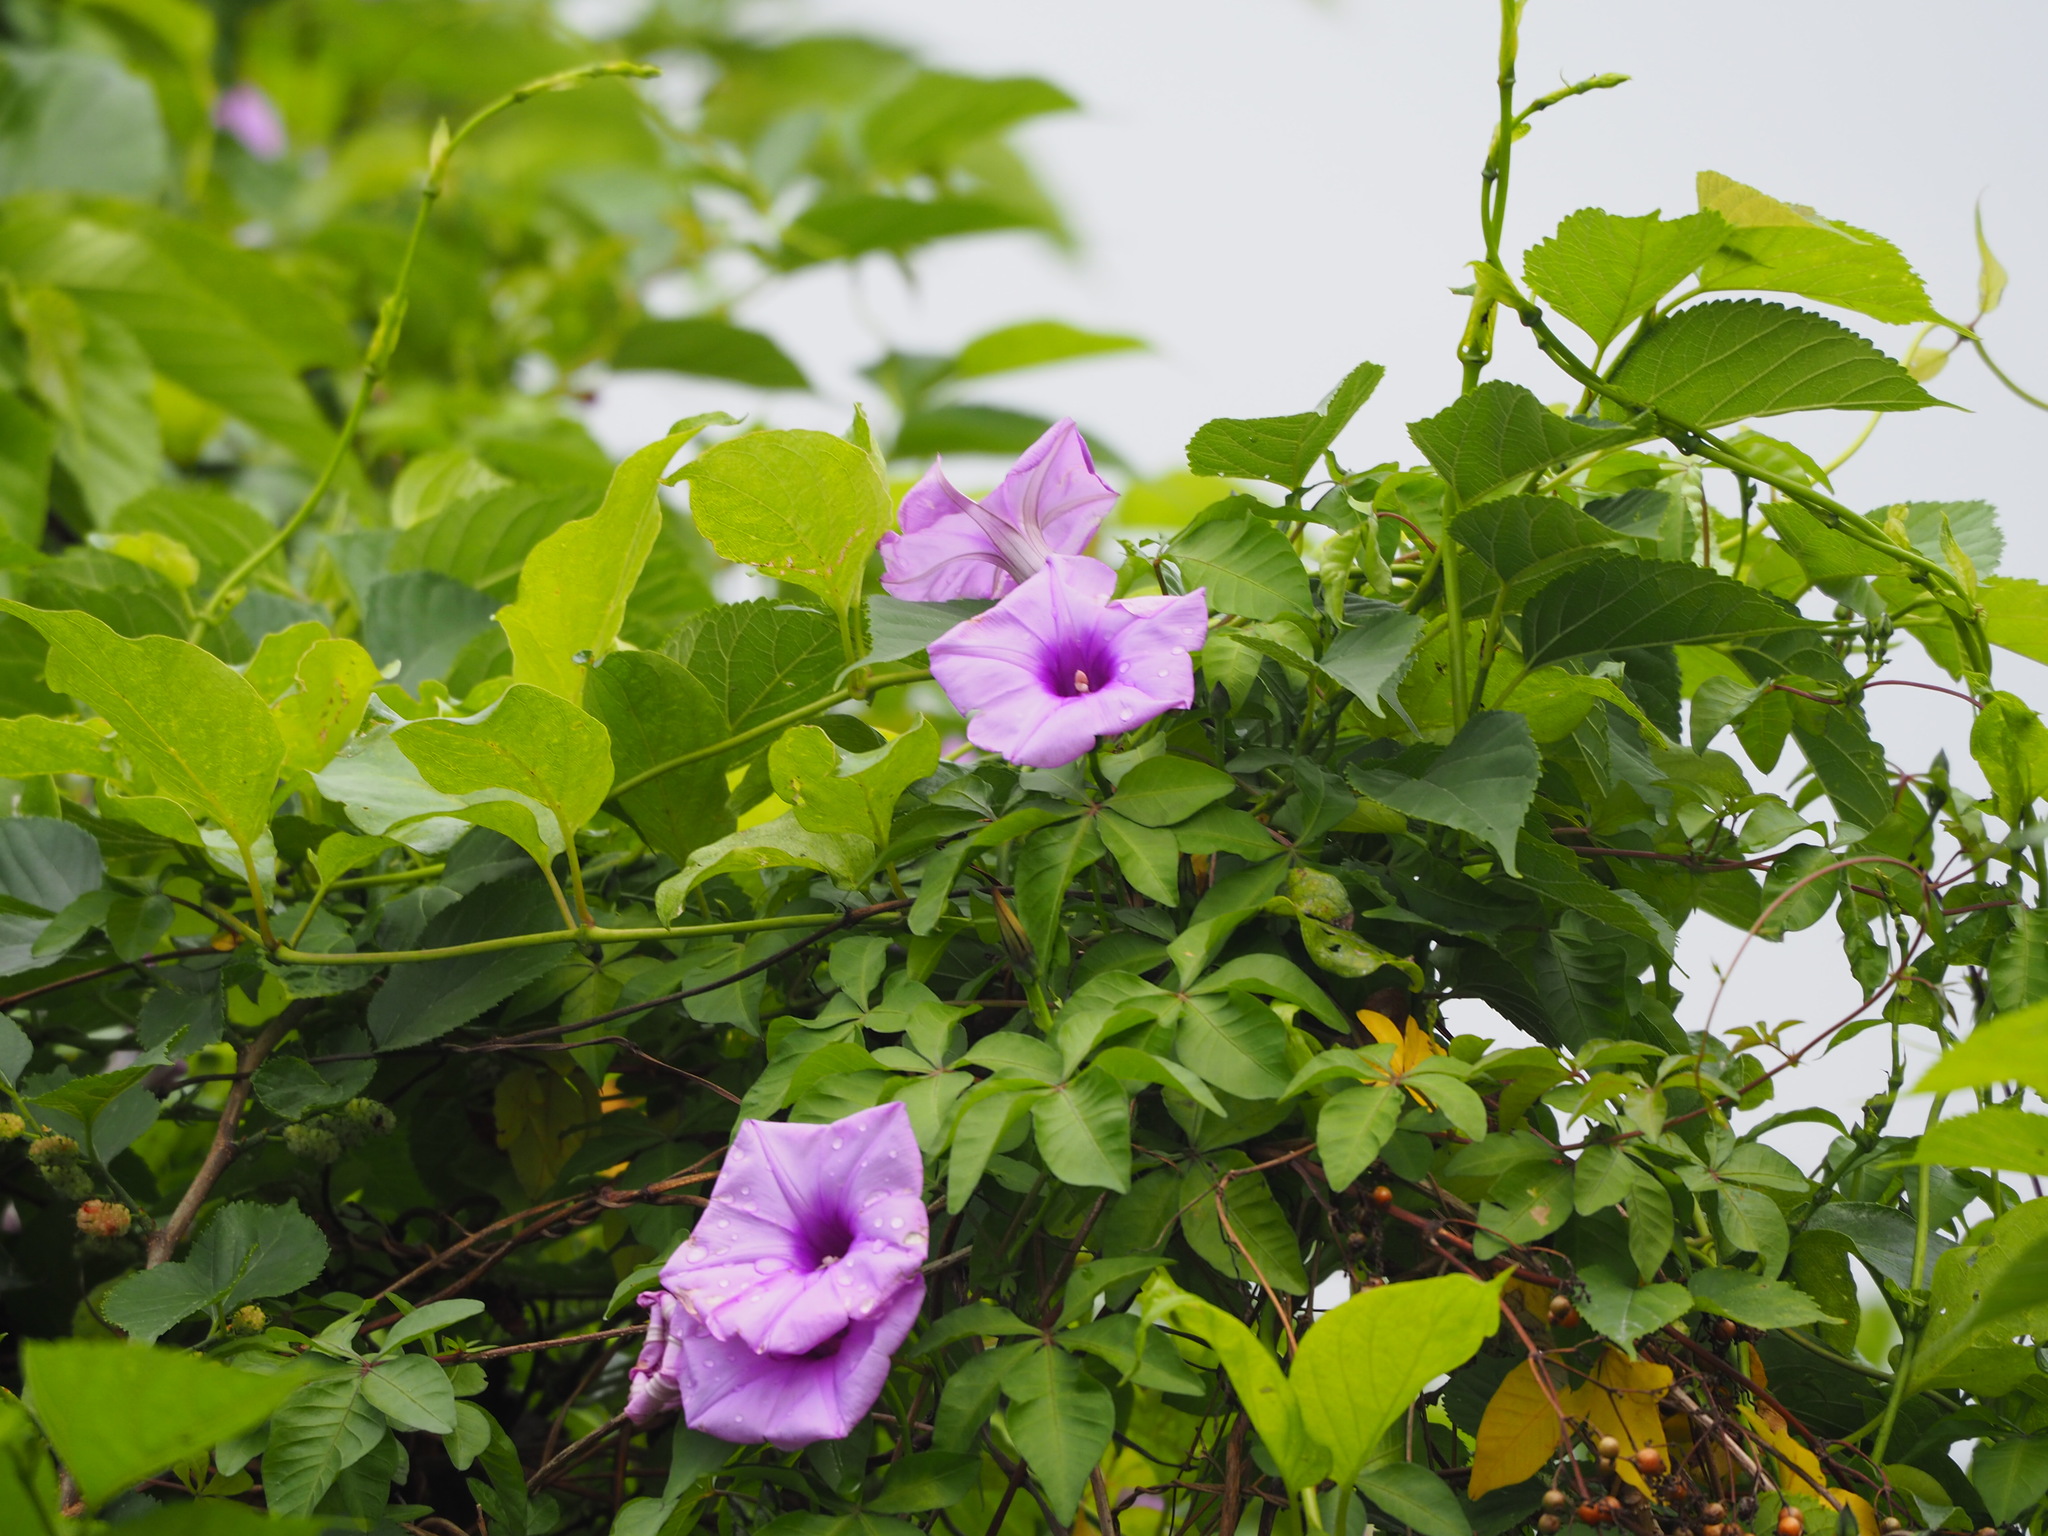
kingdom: Plantae
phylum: Tracheophyta
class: Magnoliopsida
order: Solanales
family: Convolvulaceae
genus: Ipomoea
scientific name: Ipomoea cairica
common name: Mile a minute vine
